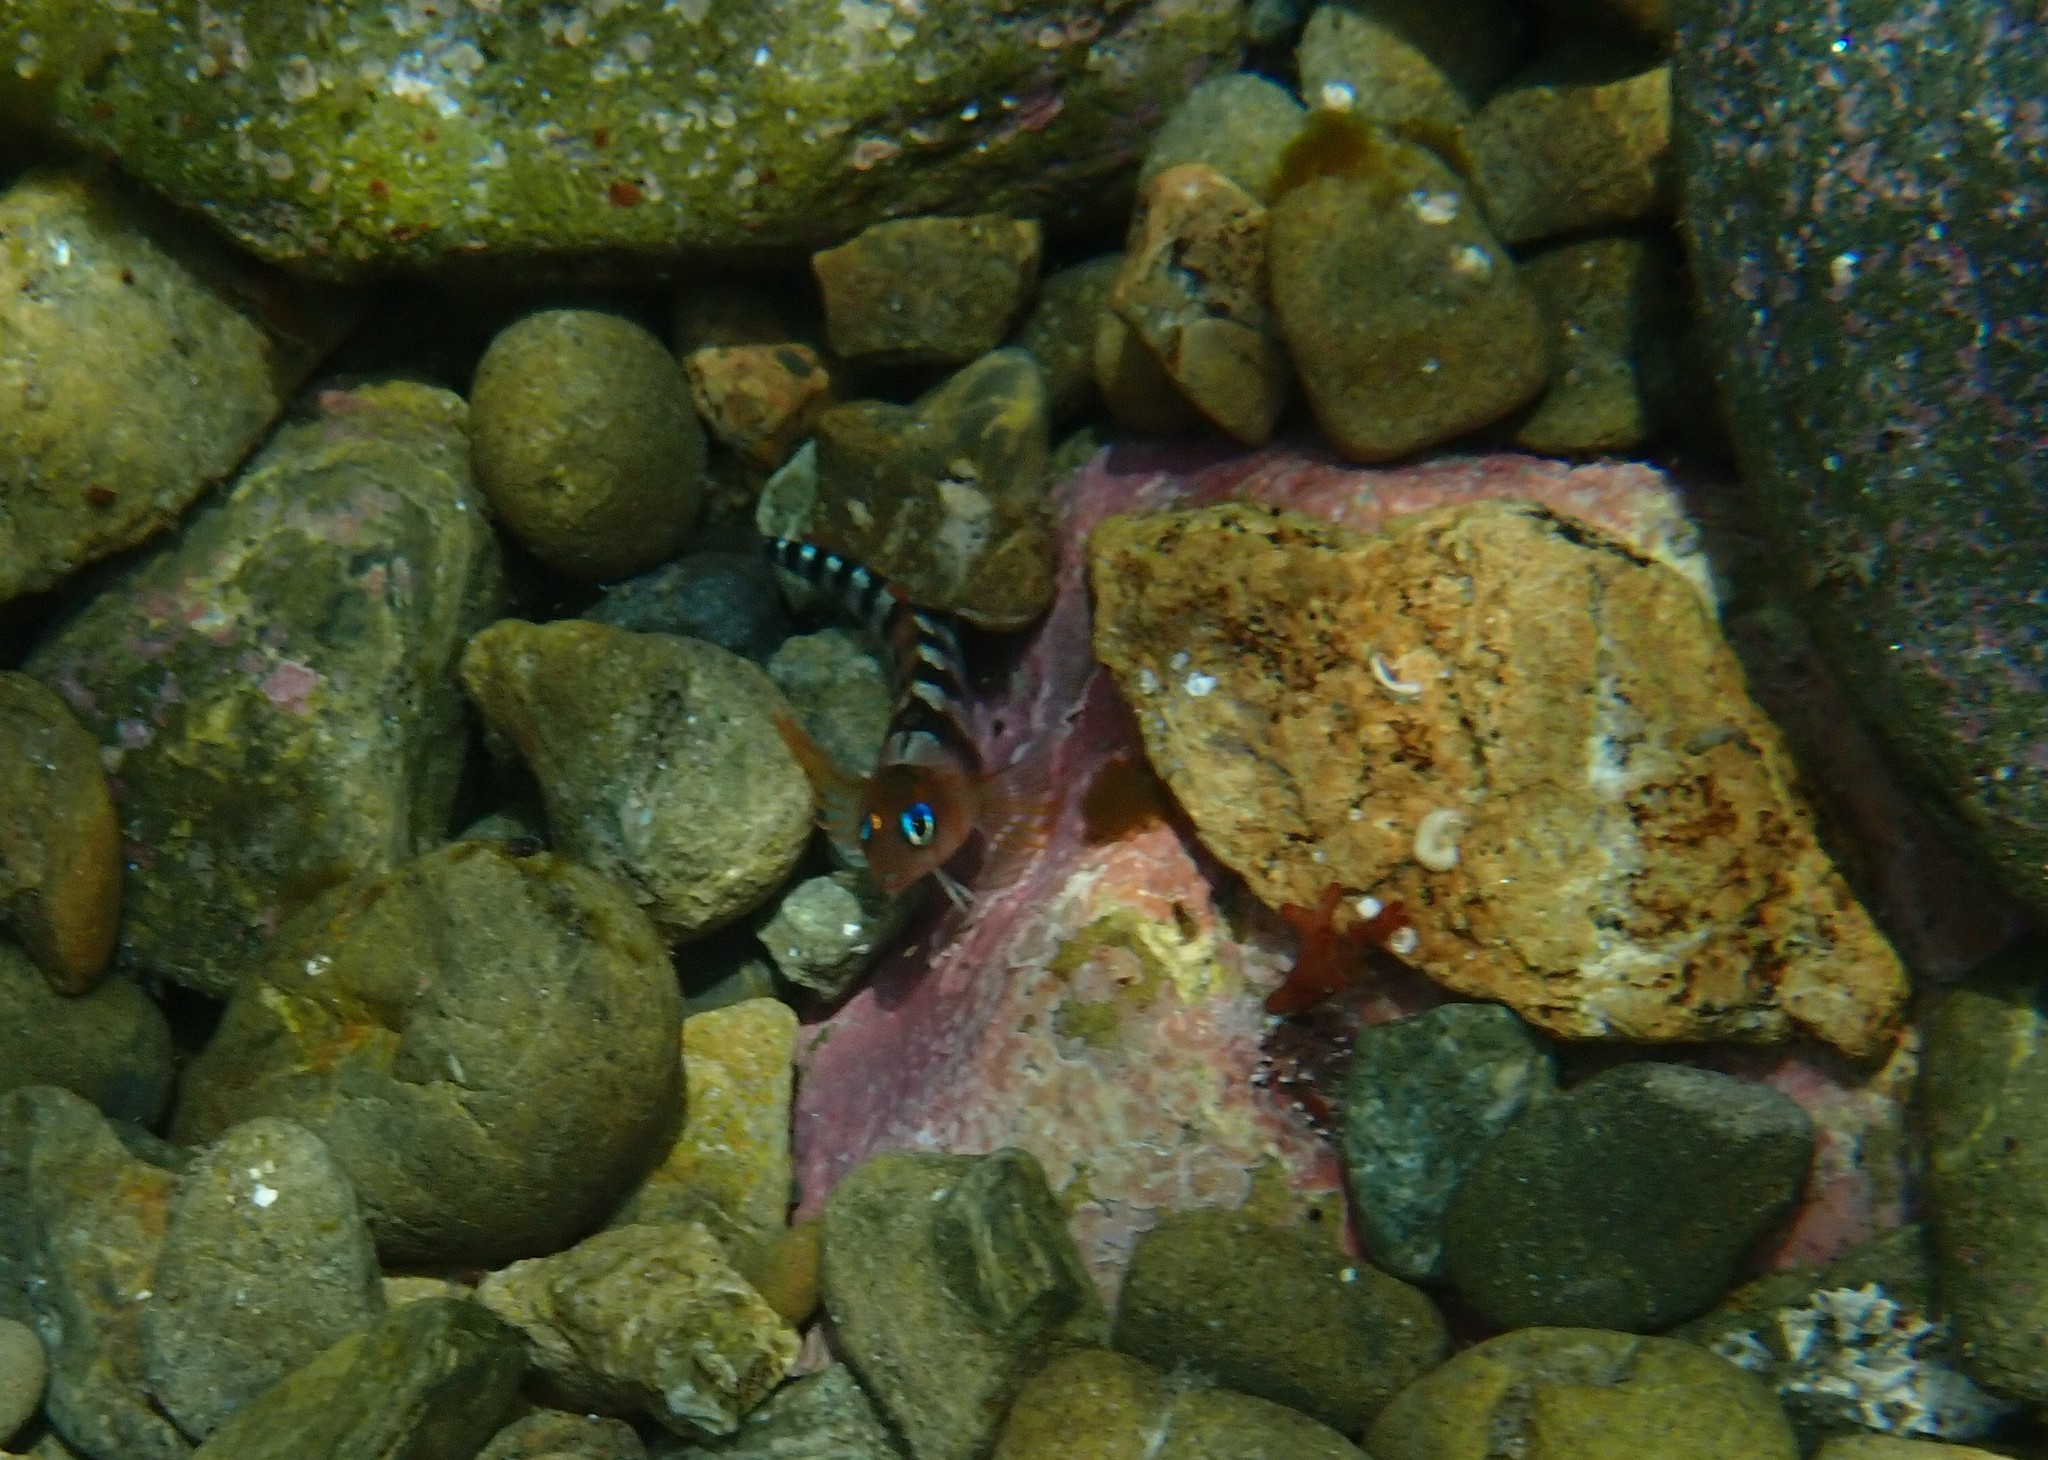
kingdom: Animalia
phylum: Chordata
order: Perciformes
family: Tripterygiidae
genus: Notoclinops
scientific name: Notoclinops segmentatus
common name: Blue-eyed triplefin
